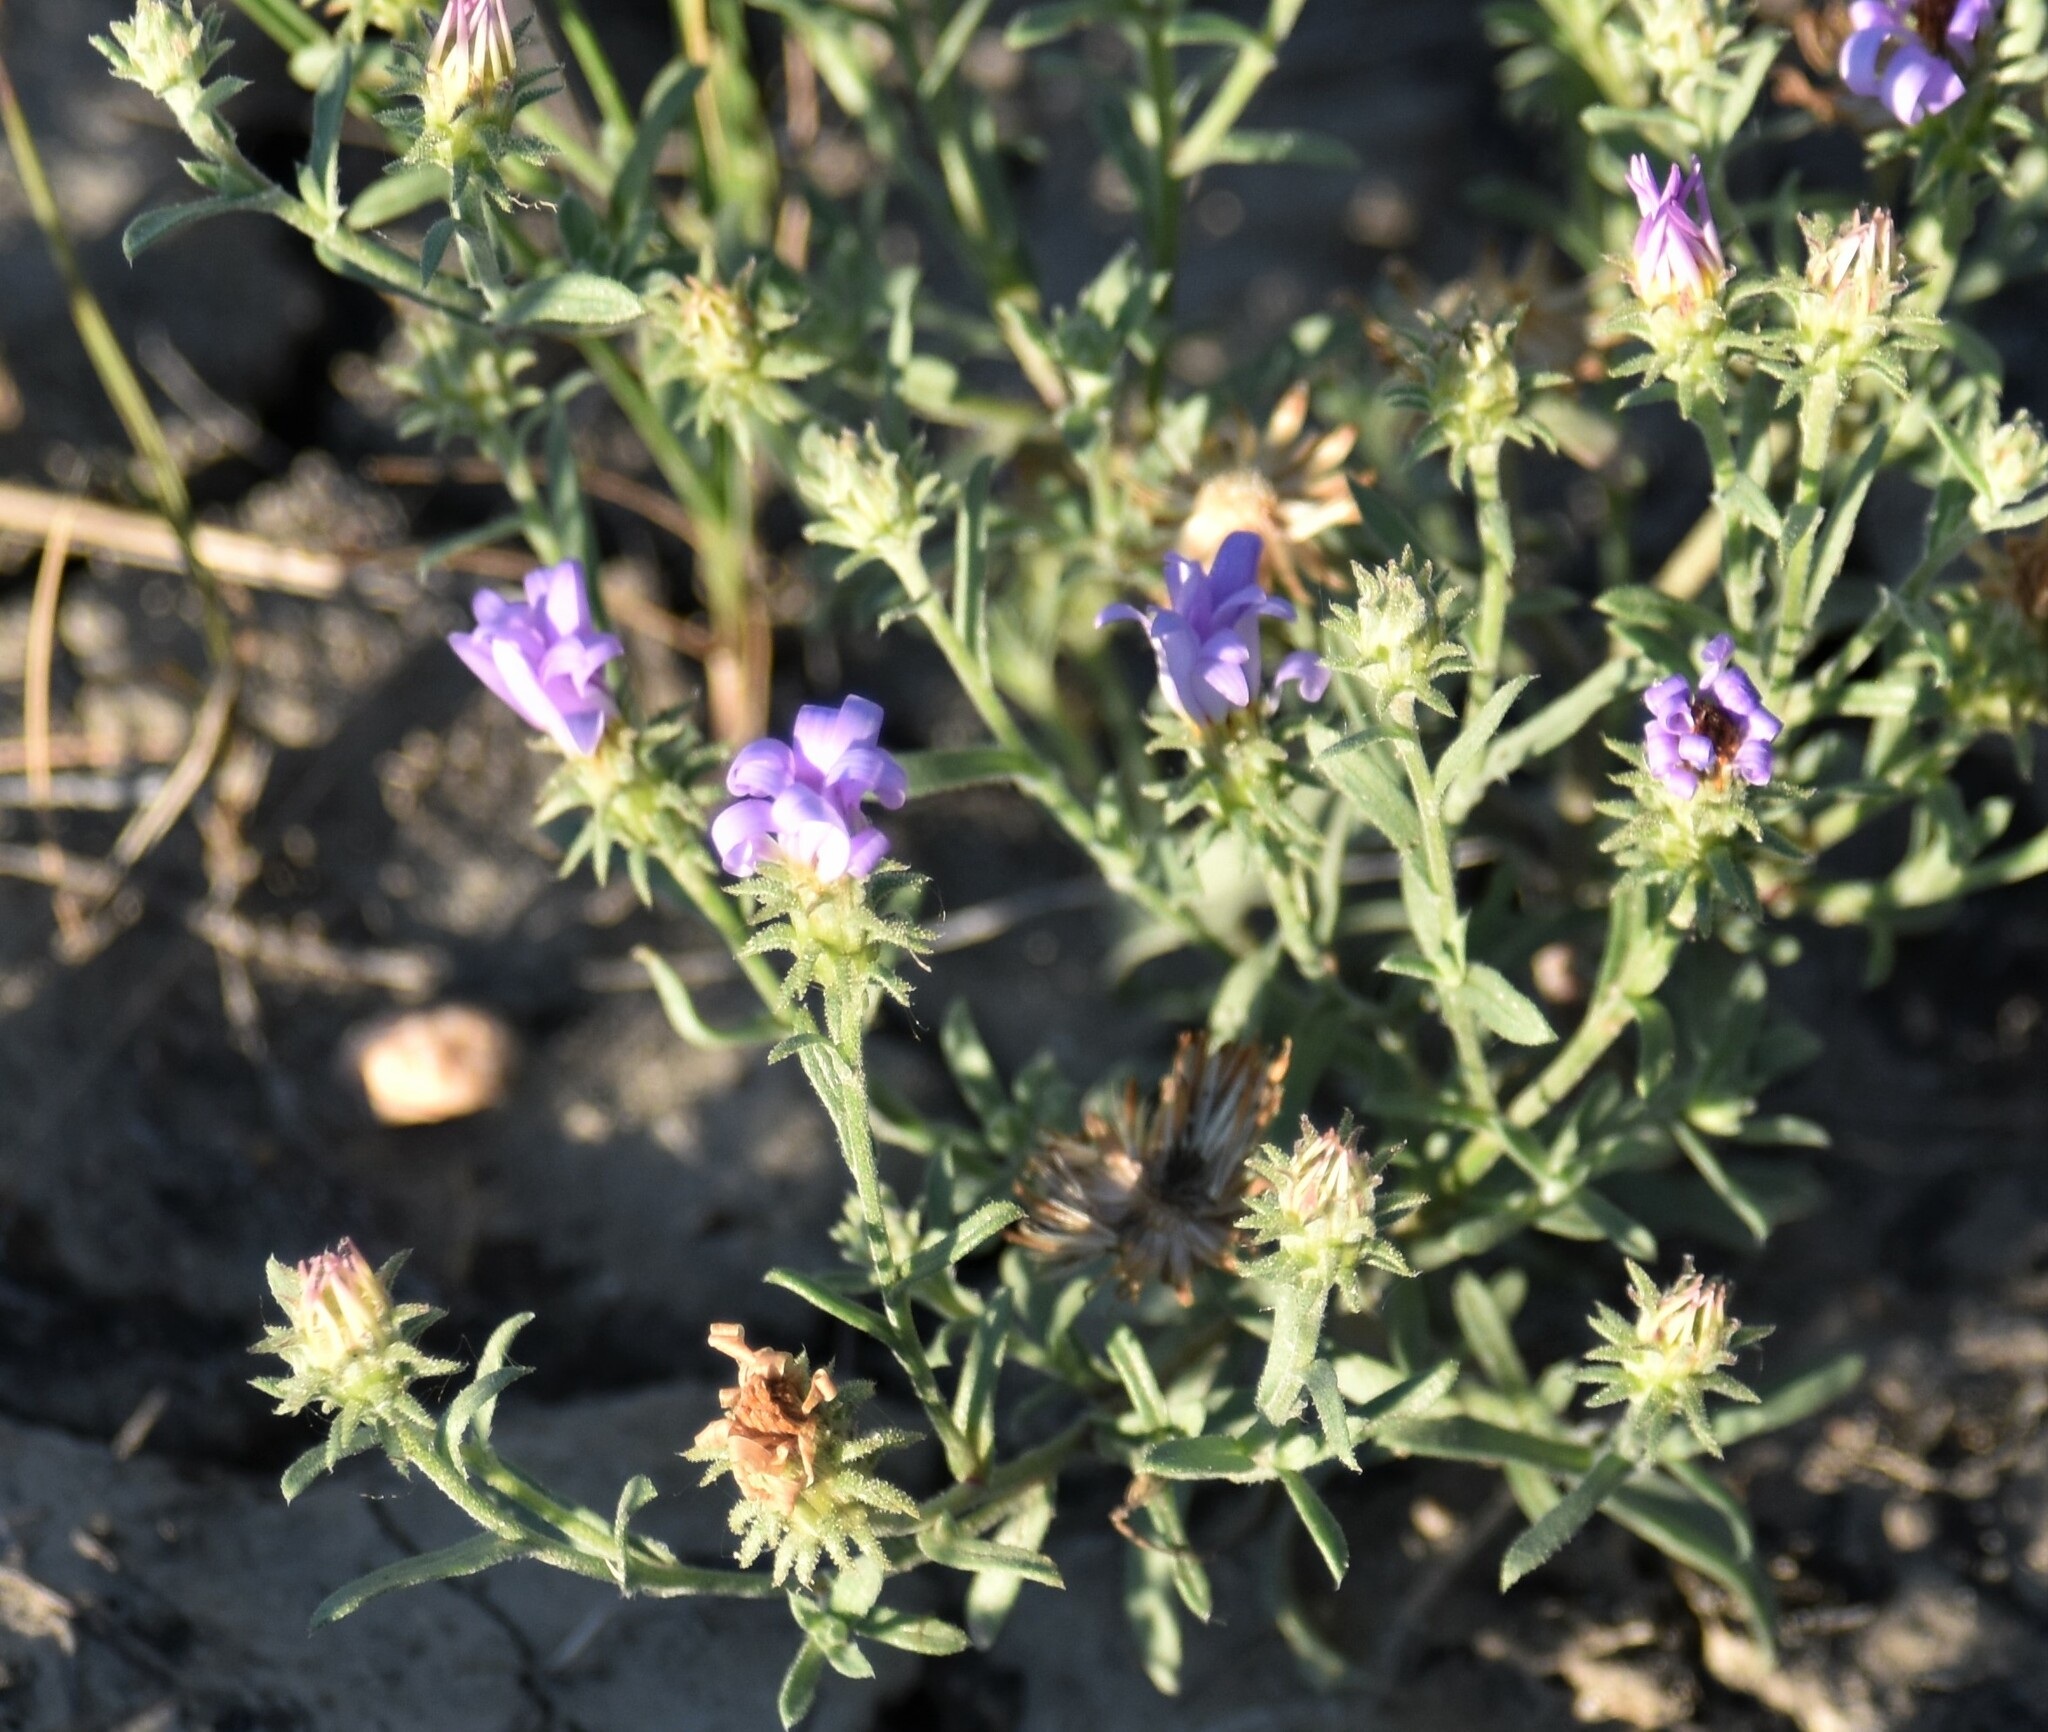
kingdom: Plantae
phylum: Tracheophyta
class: Magnoliopsida
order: Asterales
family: Asteraceae
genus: Dieteria
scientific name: Dieteria canescens
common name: Hoary-aster
